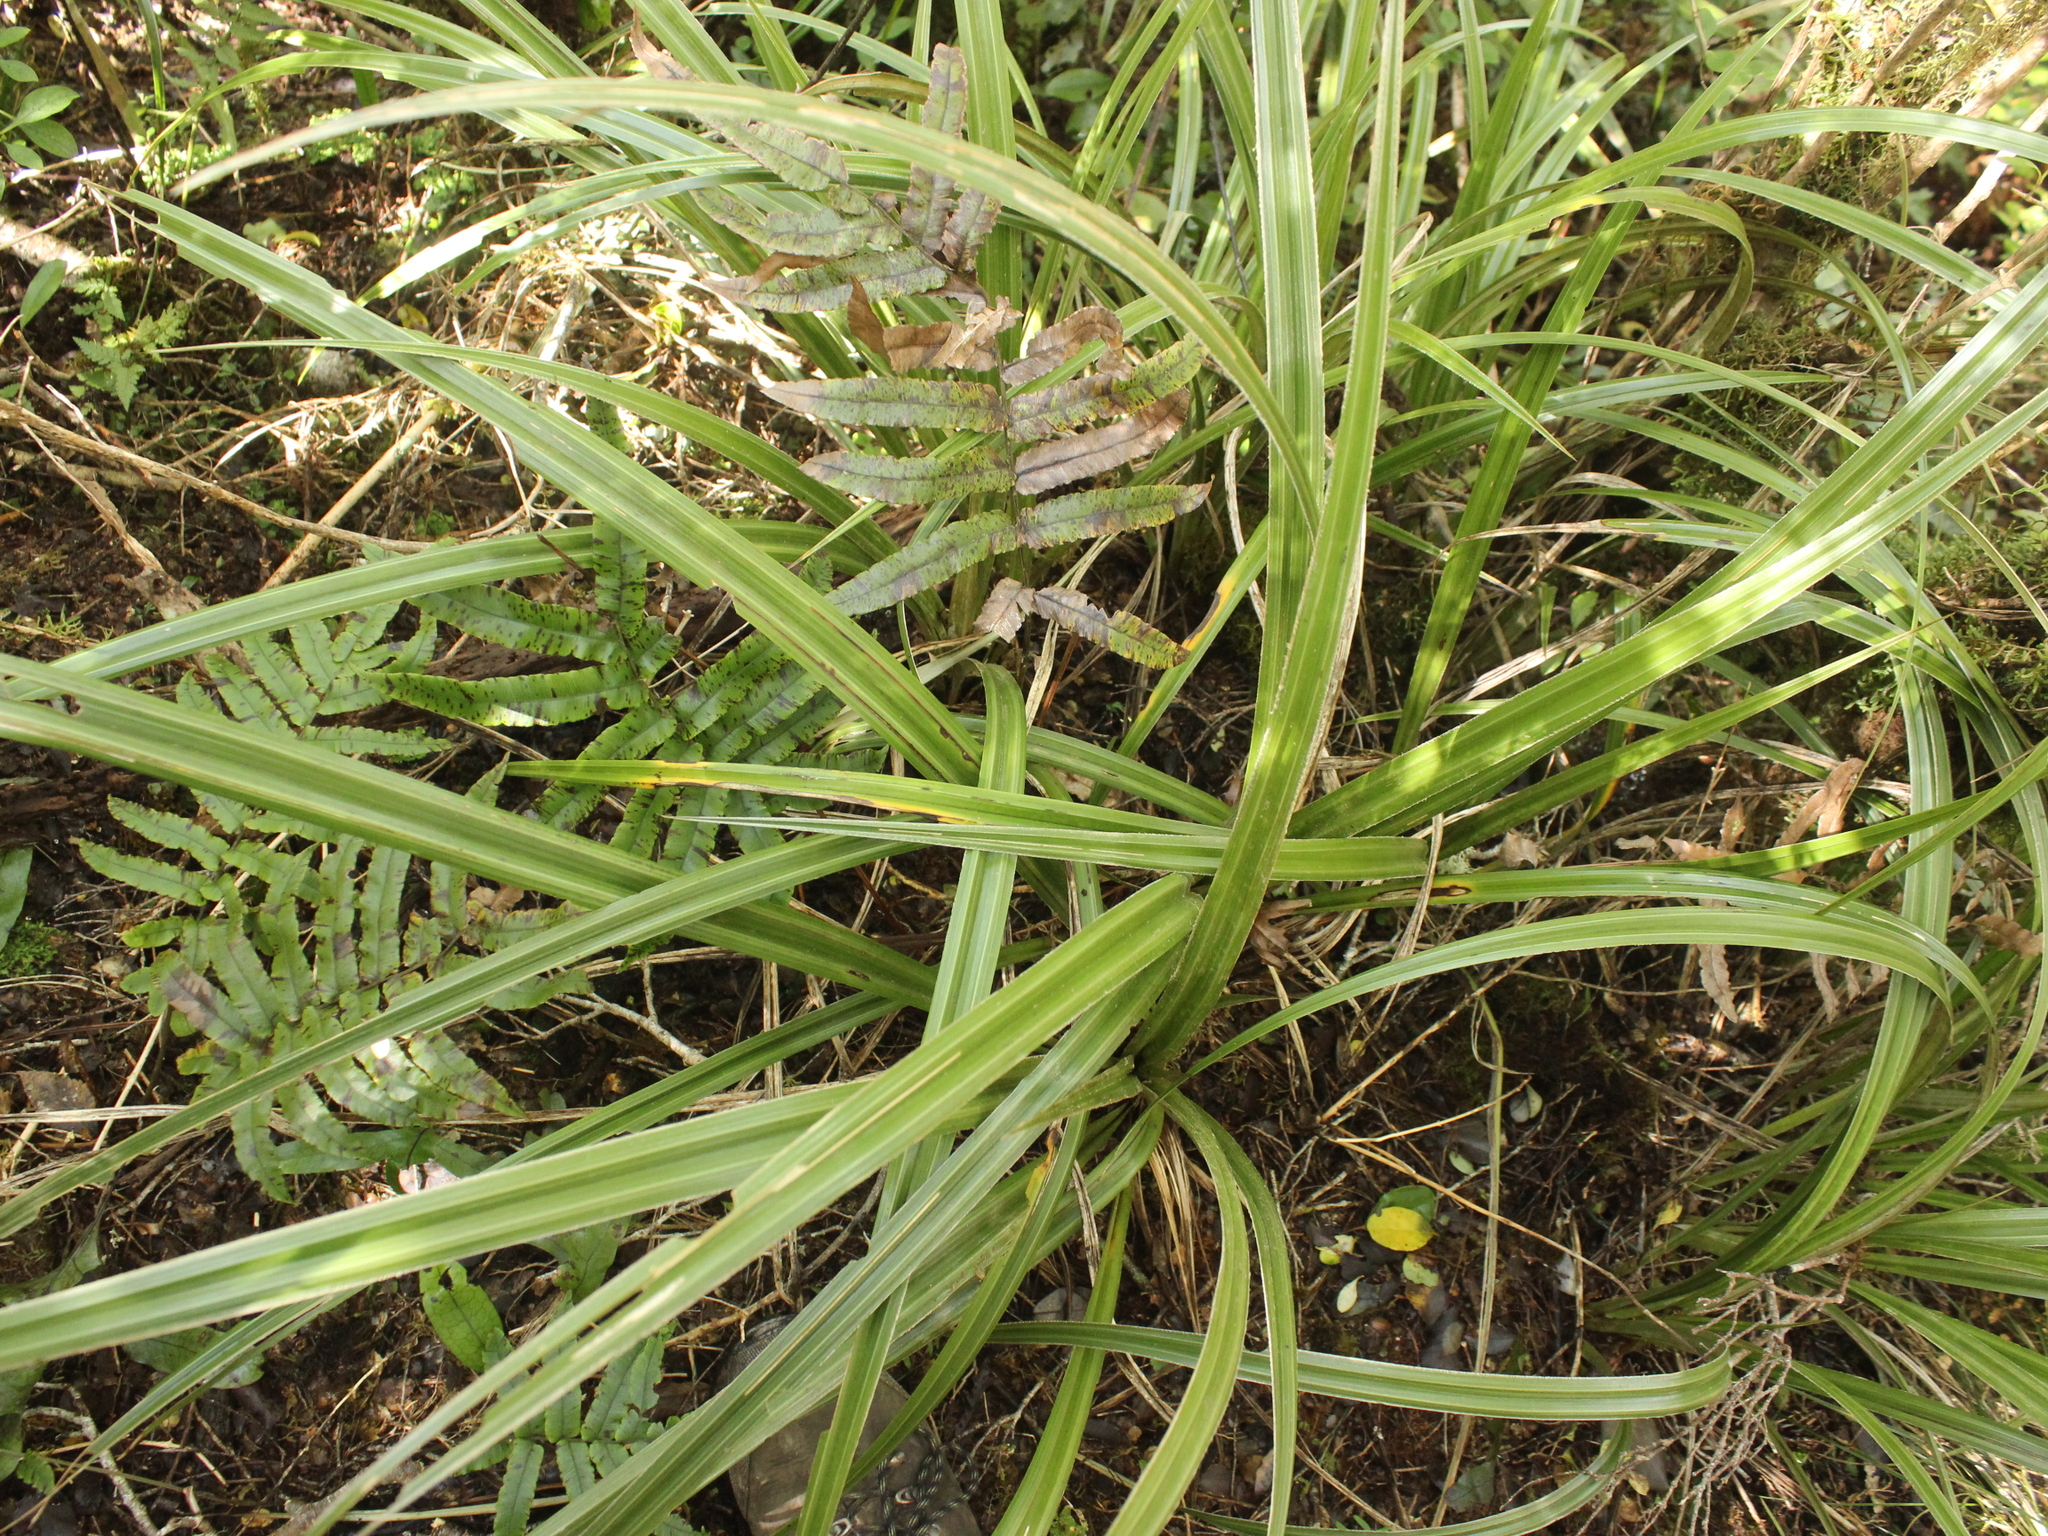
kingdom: Plantae
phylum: Tracheophyta
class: Liliopsida
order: Asparagales
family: Asteliaceae
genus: Astelia
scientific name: Astelia solandri
